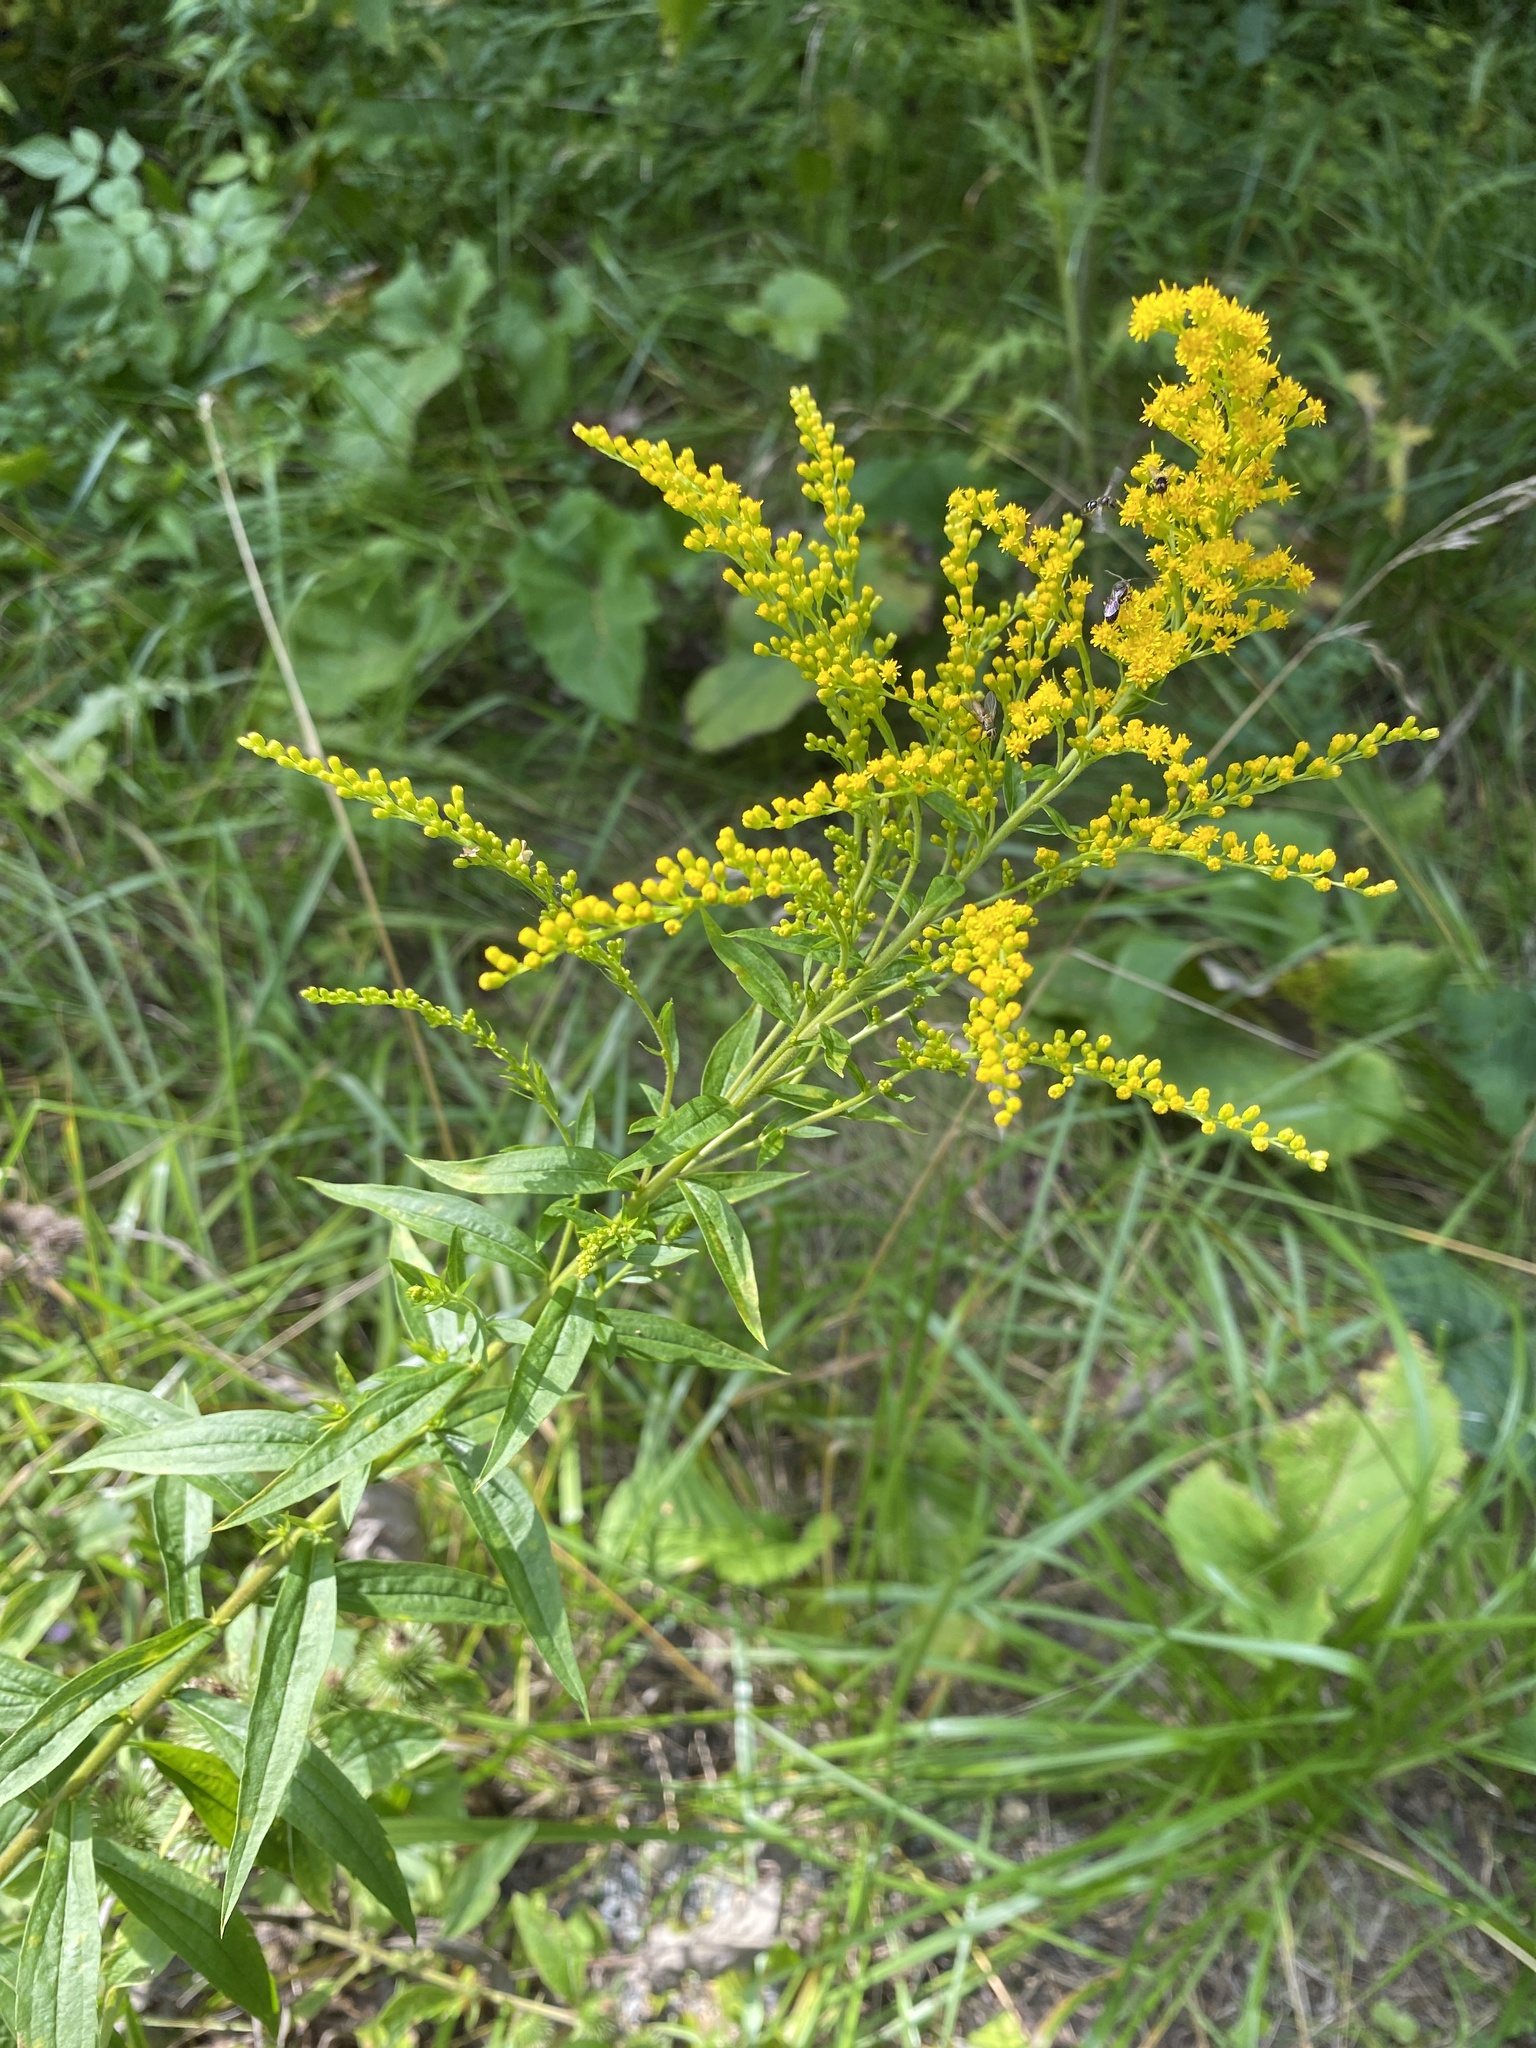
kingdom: Plantae
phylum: Tracheophyta
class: Magnoliopsida
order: Asterales
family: Asteraceae
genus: Solidago
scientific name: Solidago canadensis
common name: Canada goldenrod
